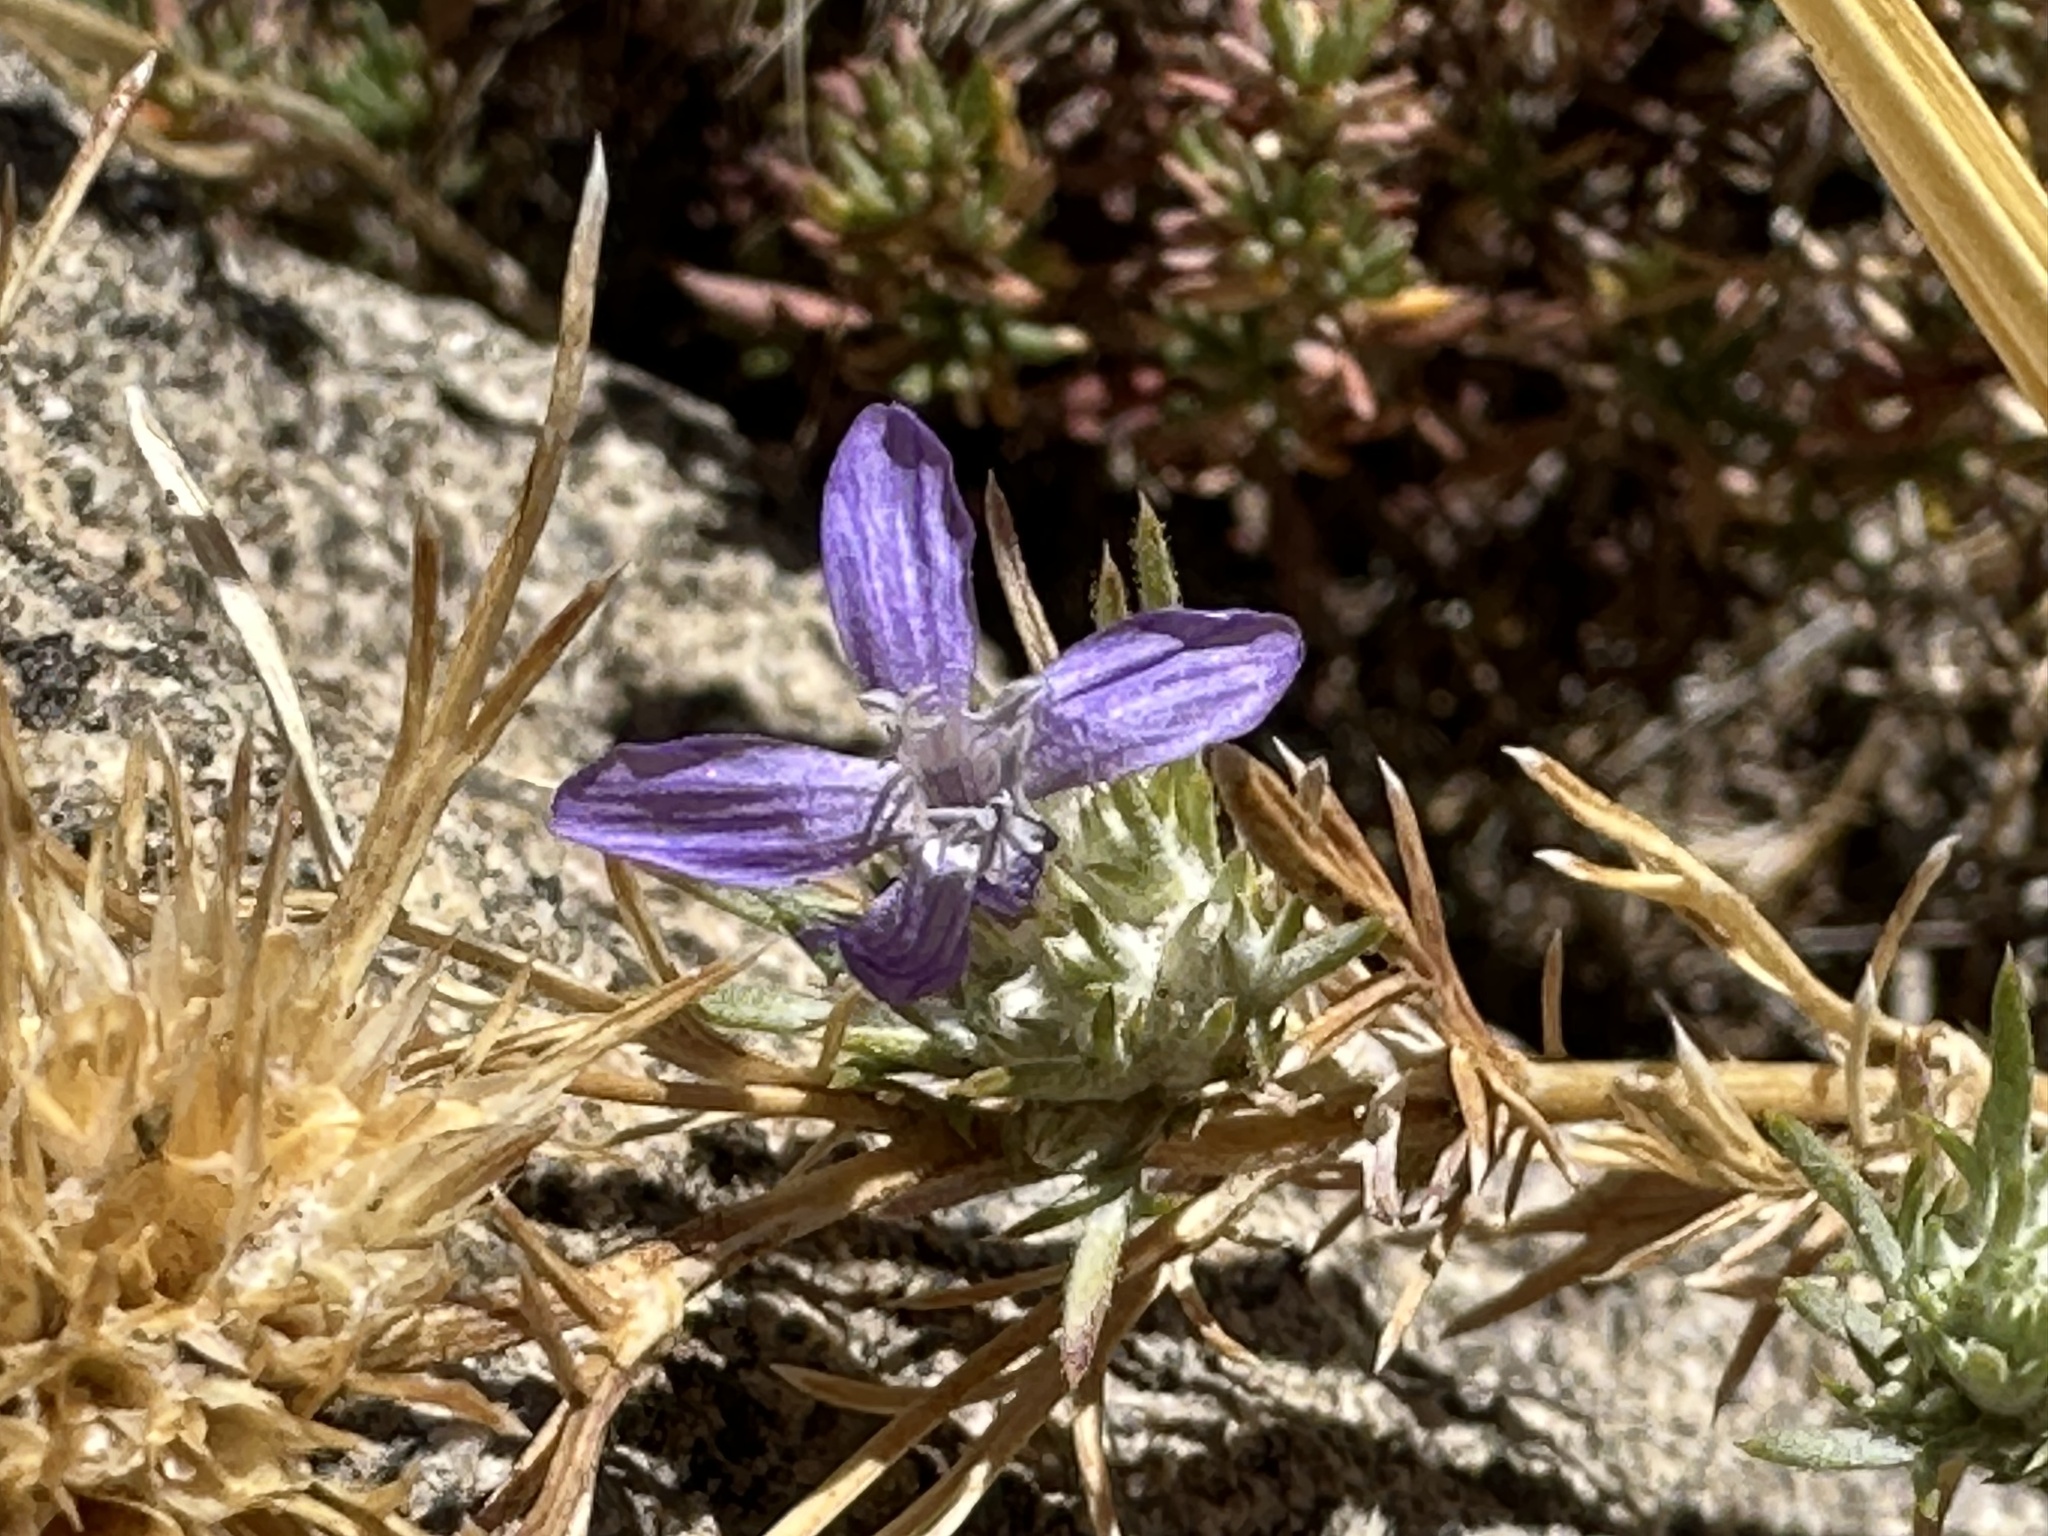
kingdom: Plantae
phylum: Tracheophyta
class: Magnoliopsida
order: Ericales
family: Polemoniaceae
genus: Eriastrum
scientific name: Eriastrum densifolium
